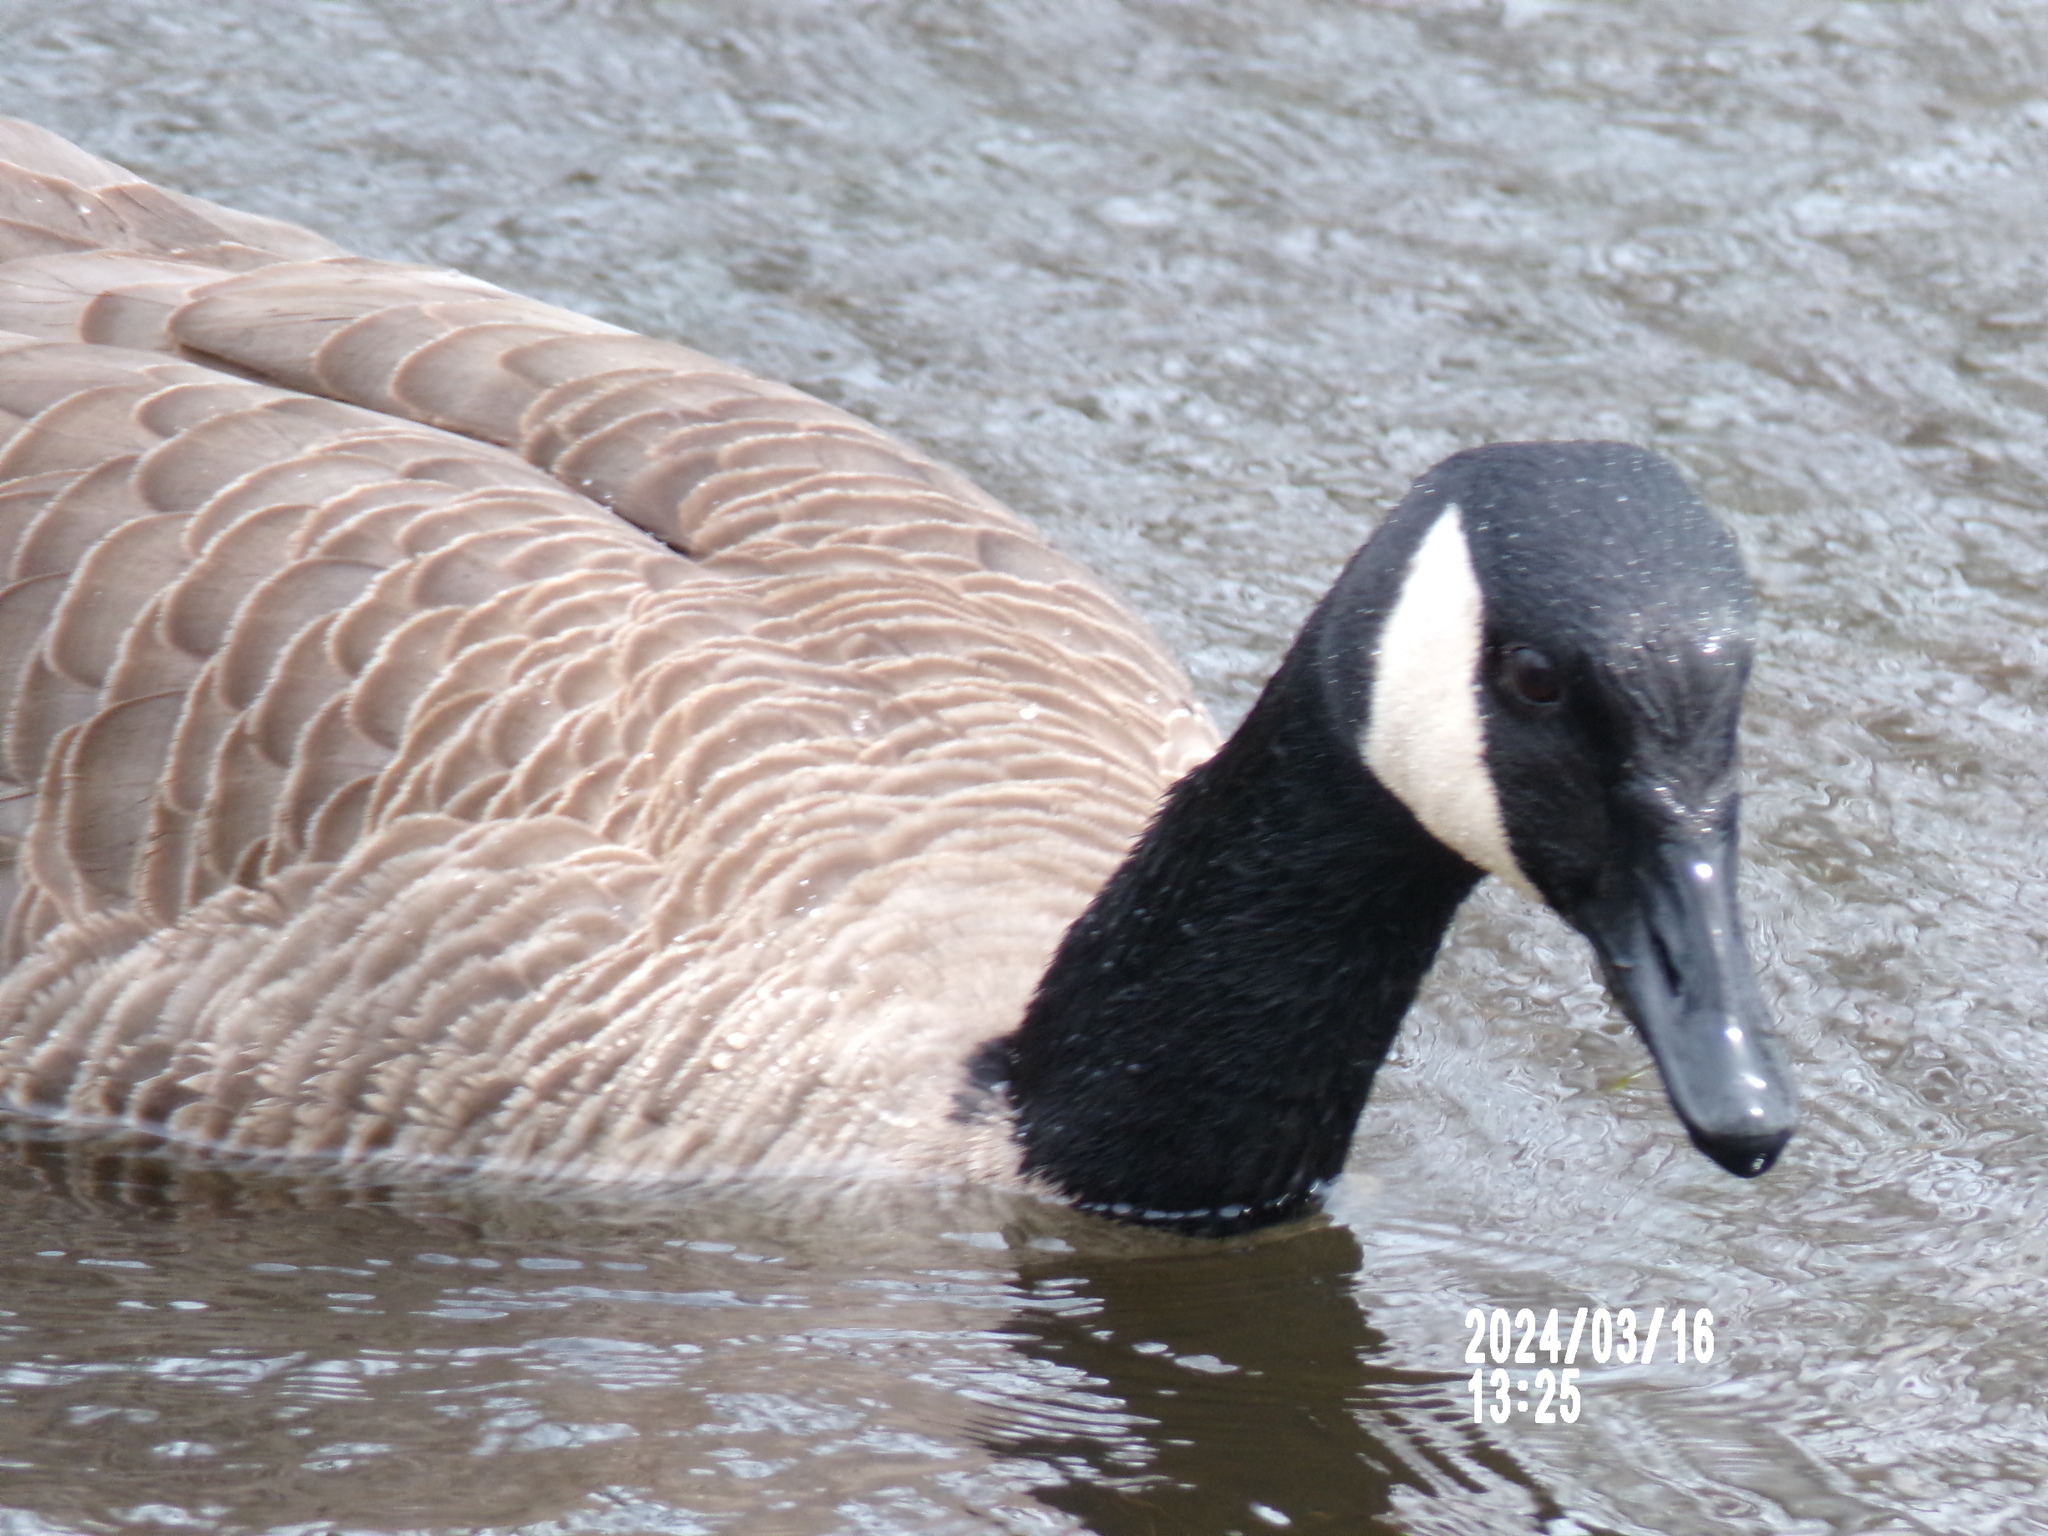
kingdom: Animalia
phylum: Chordata
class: Aves
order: Anseriformes
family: Anatidae
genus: Branta
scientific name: Branta canadensis
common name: Canada goose
